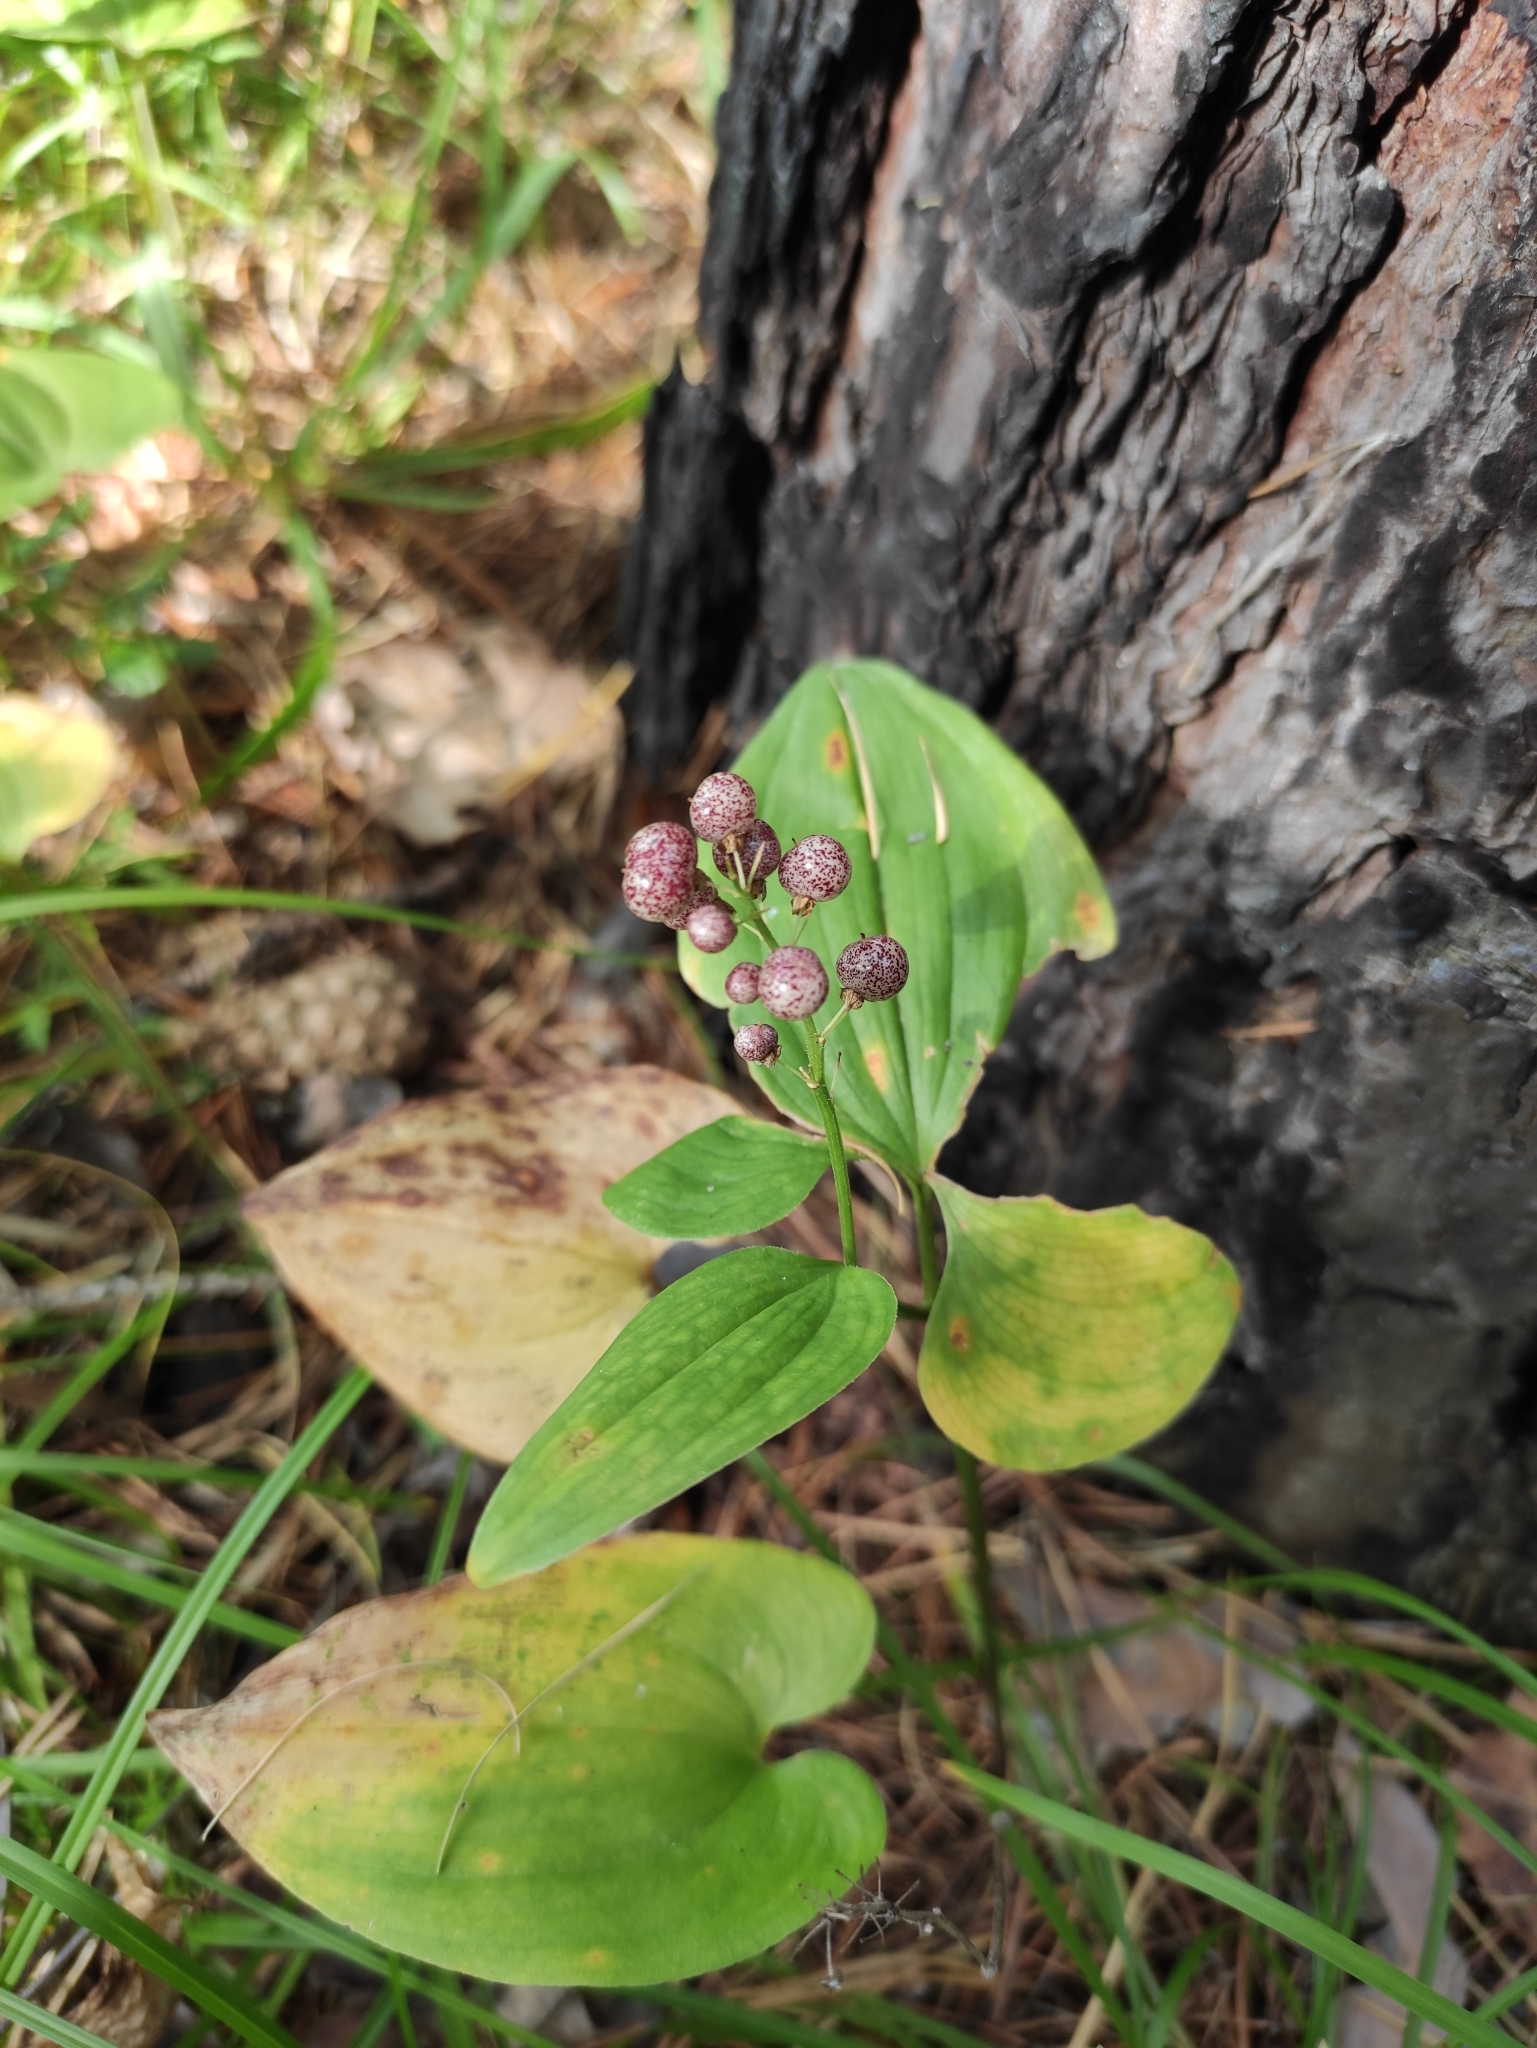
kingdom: Plantae
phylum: Tracheophyta
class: Liliopsida
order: Asparagales
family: Asparagaceae
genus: Maianthemum
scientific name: Maianthemum bifolium
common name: May lily
